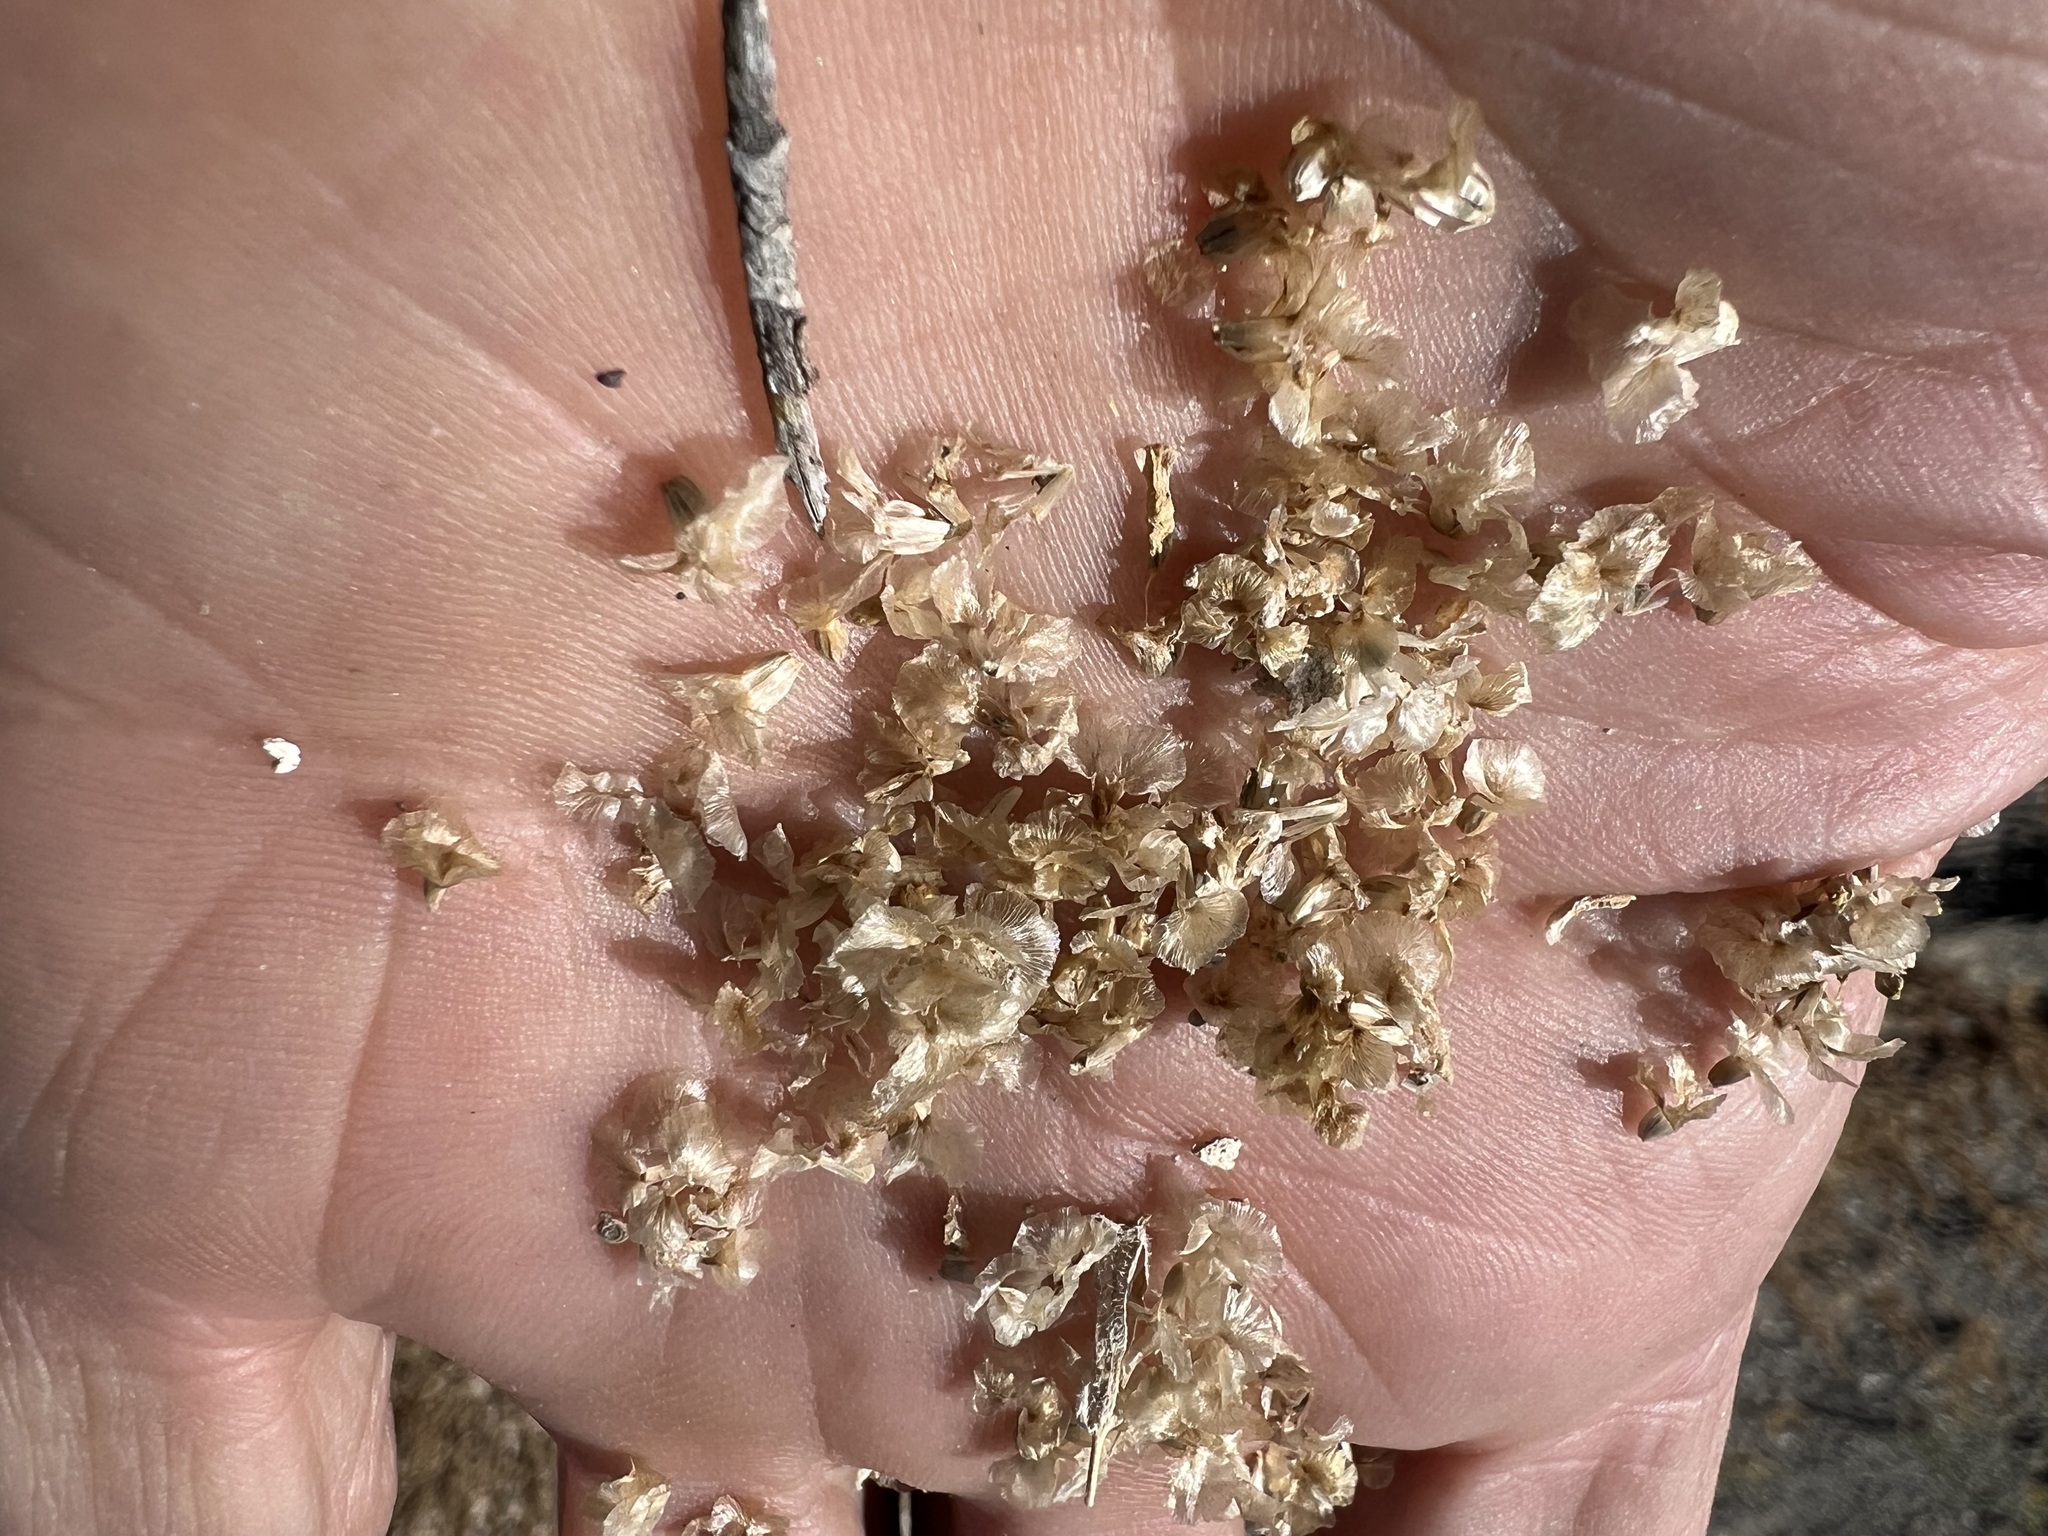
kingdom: Plantae
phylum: Tracheophyta
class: Magnoliopsida
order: Caryophyllales
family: Amaranthaceae
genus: Halogeton
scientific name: Halogeton glomeratus
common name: Saltlover
